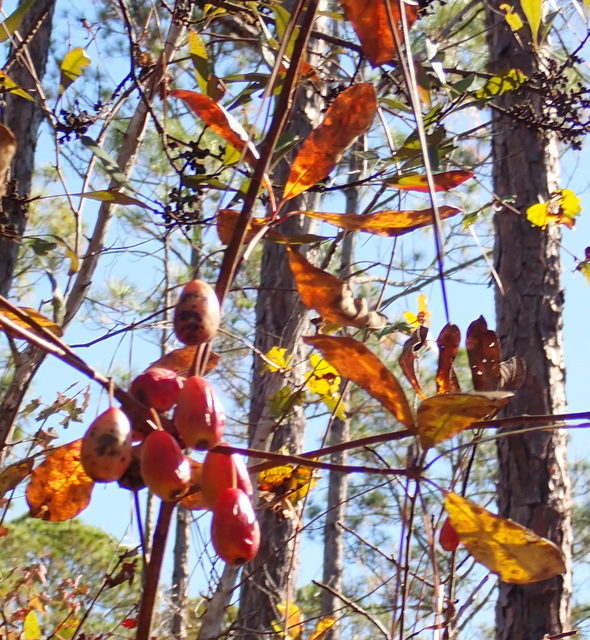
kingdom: Plantae
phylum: Tracheophyta
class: Magnoliopsida
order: Cornales
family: Nyssaceae
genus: Nyssa
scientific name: Nyssa ogeche
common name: Ogeechee tupelo
